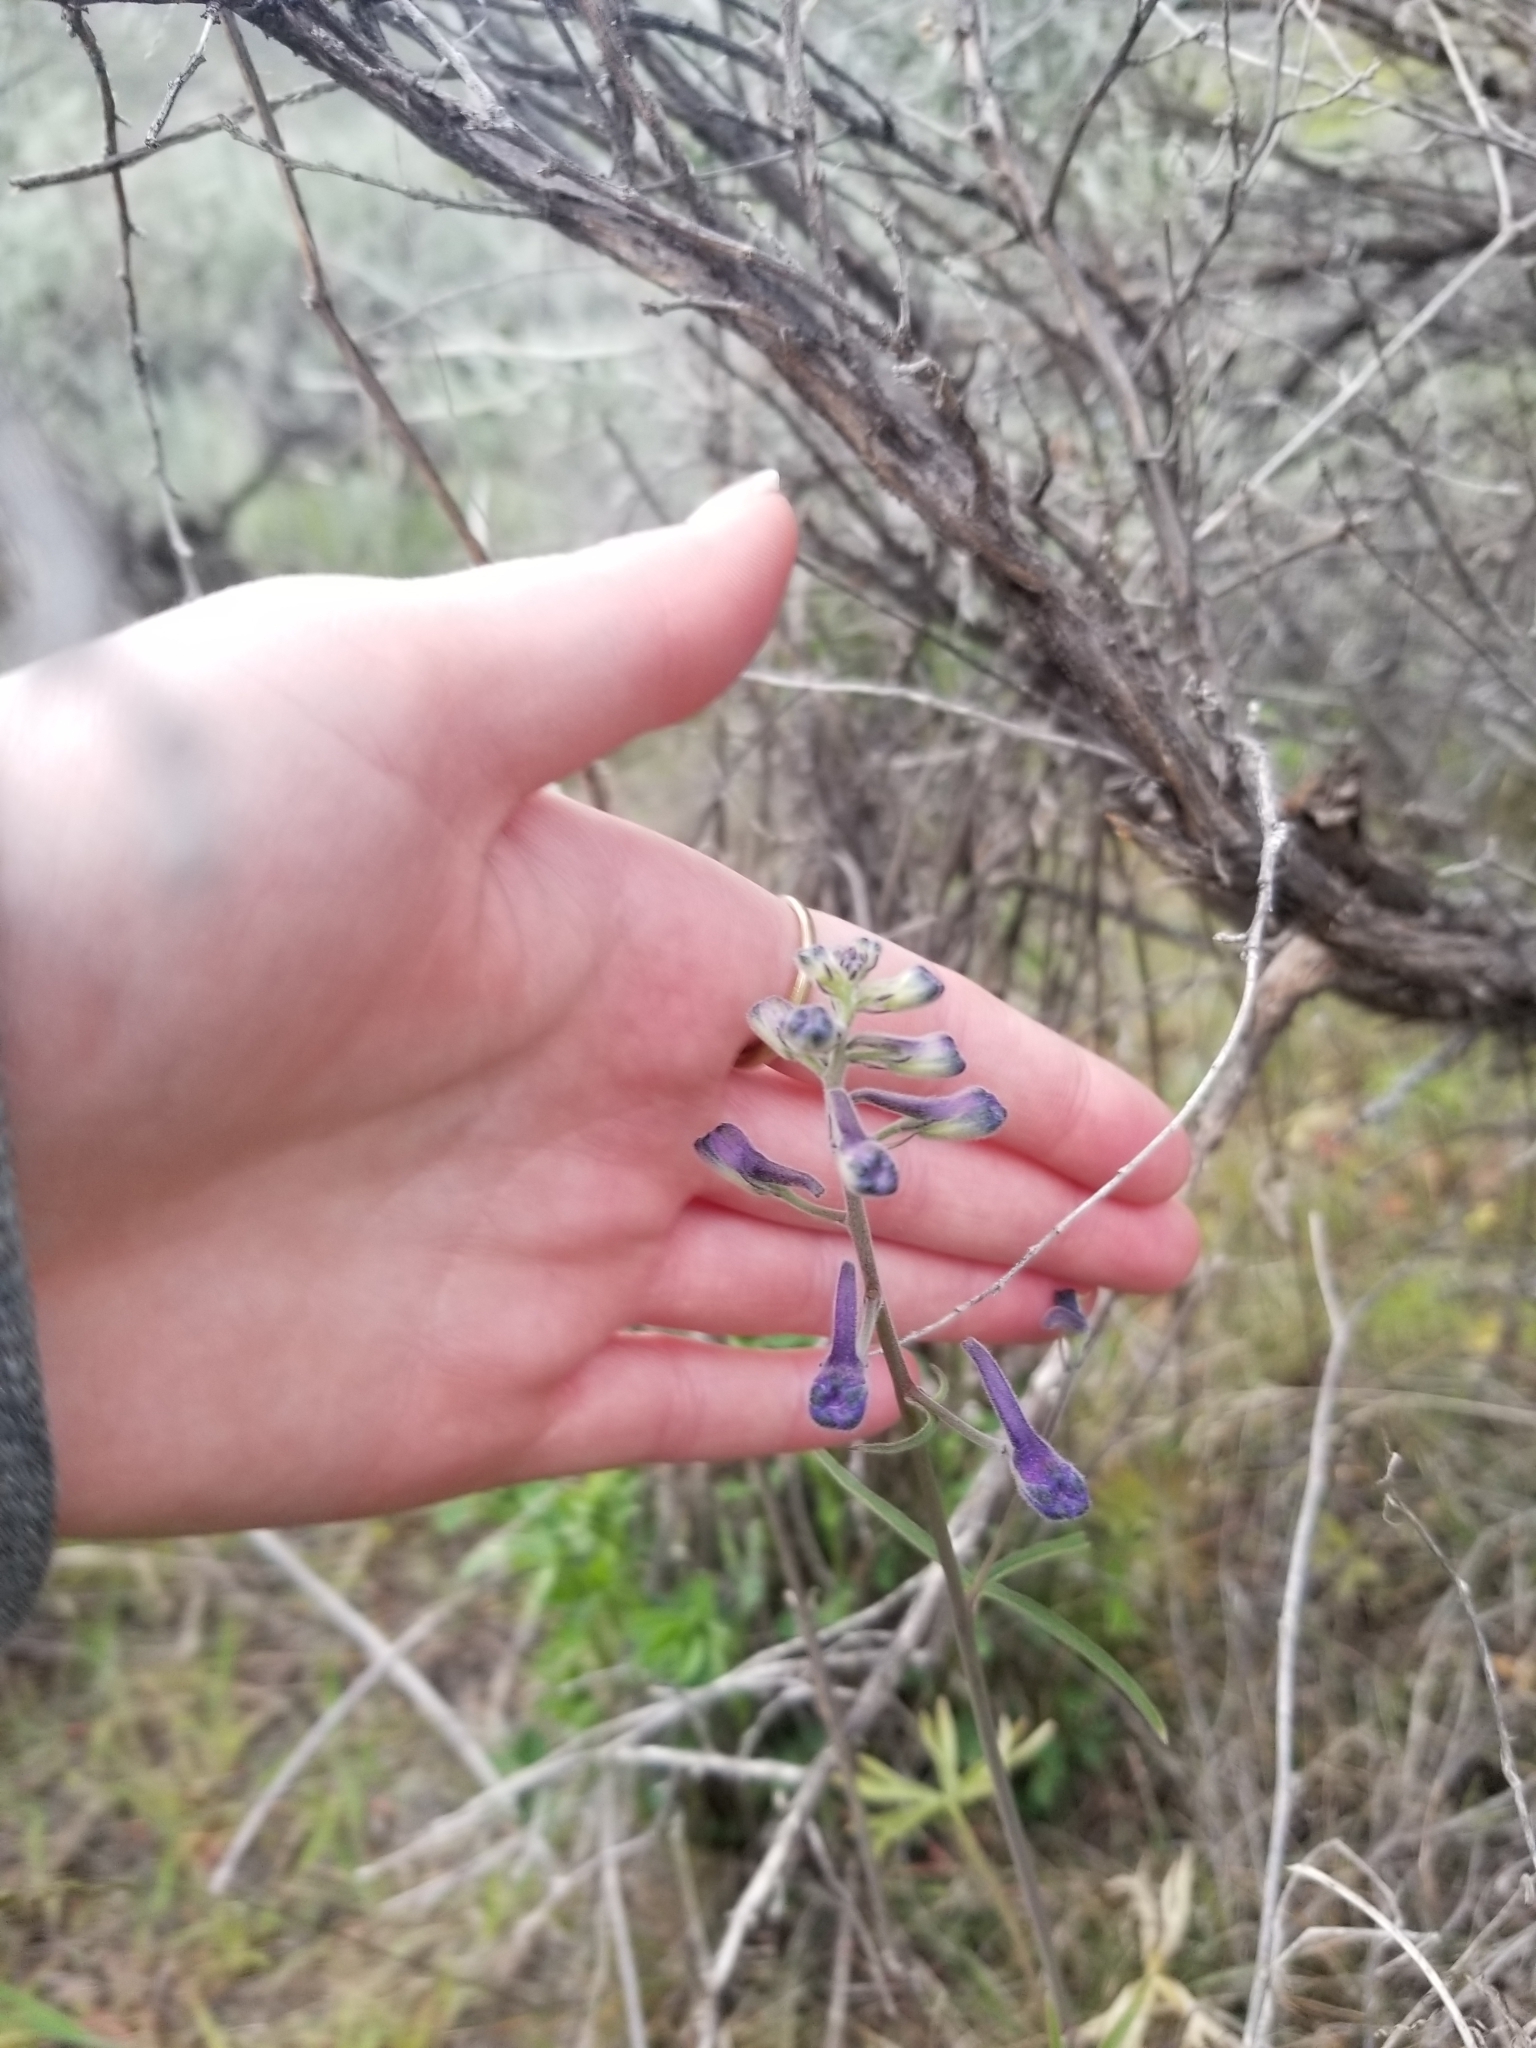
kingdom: Plantae
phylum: Tracheophyta
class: Magnoliopsida
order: Ranunculales
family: Ranunculaceae
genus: Delphinium
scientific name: Delphinium nuttallianum
